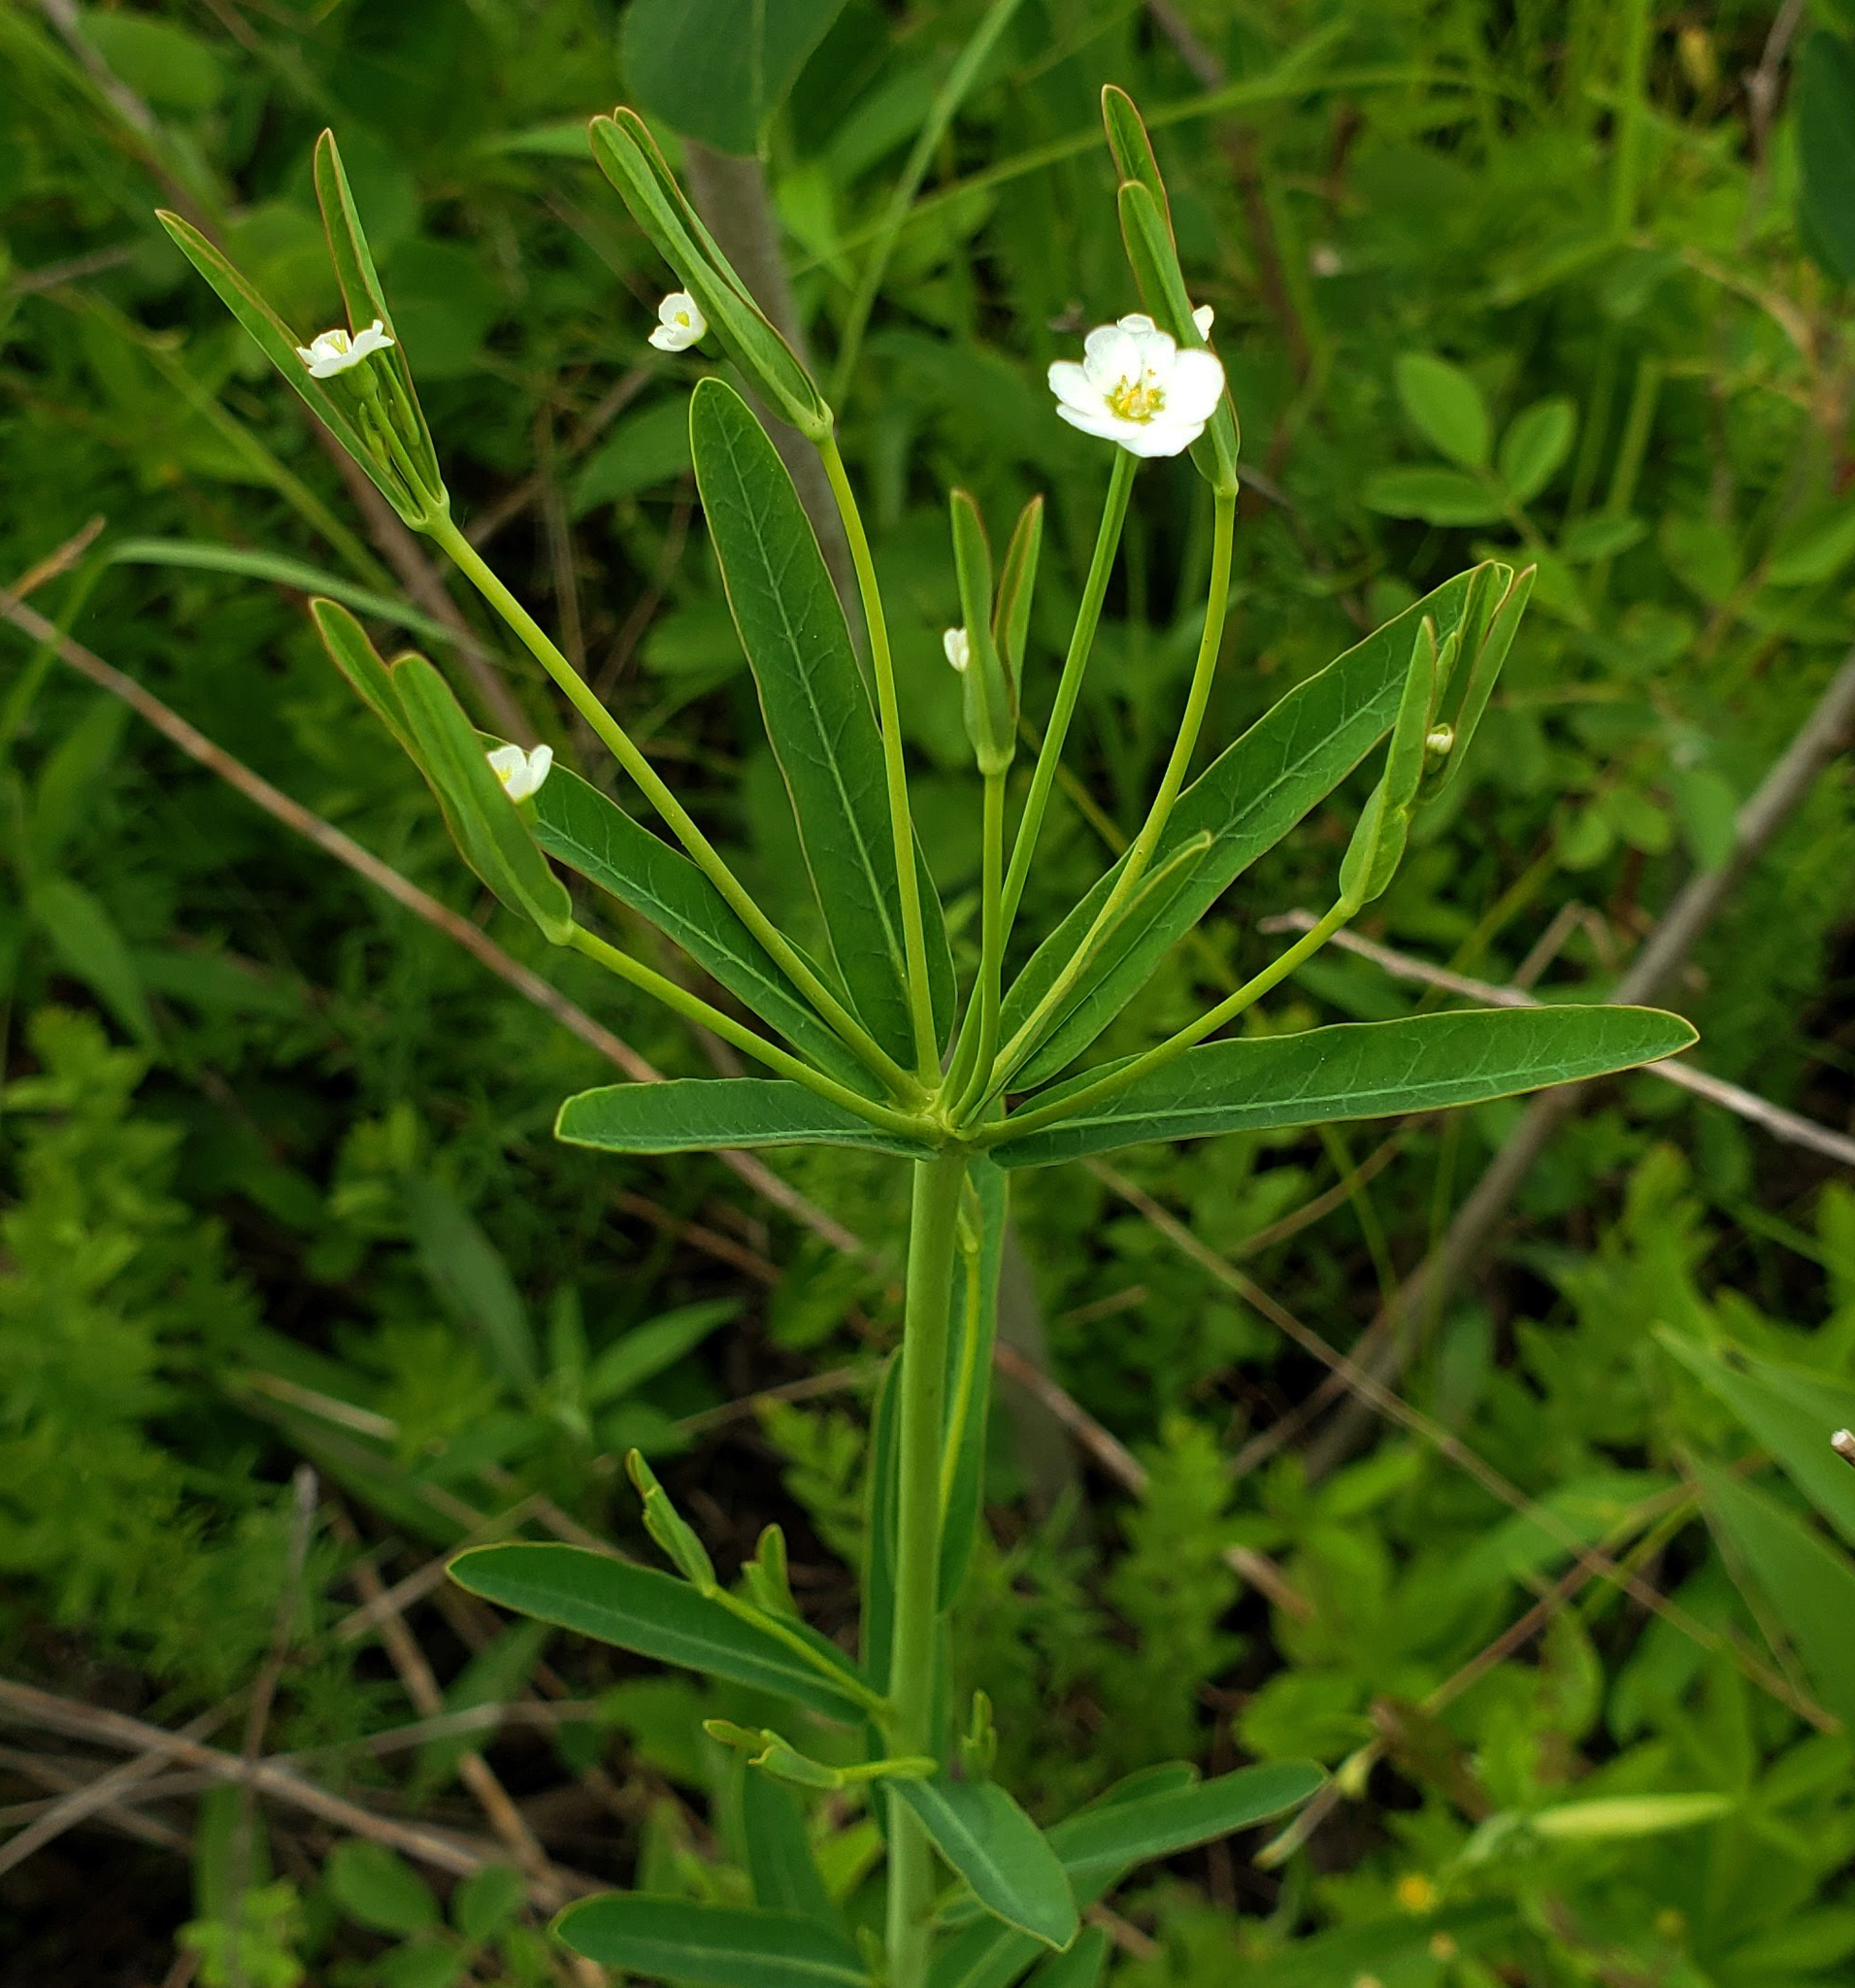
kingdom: Plantae
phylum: Tracheophyta
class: Magnoliopsida
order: Malpighiales
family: Euphorbiaceae
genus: Euphorbia
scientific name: Euphorbia corollata
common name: Flowering spurge
